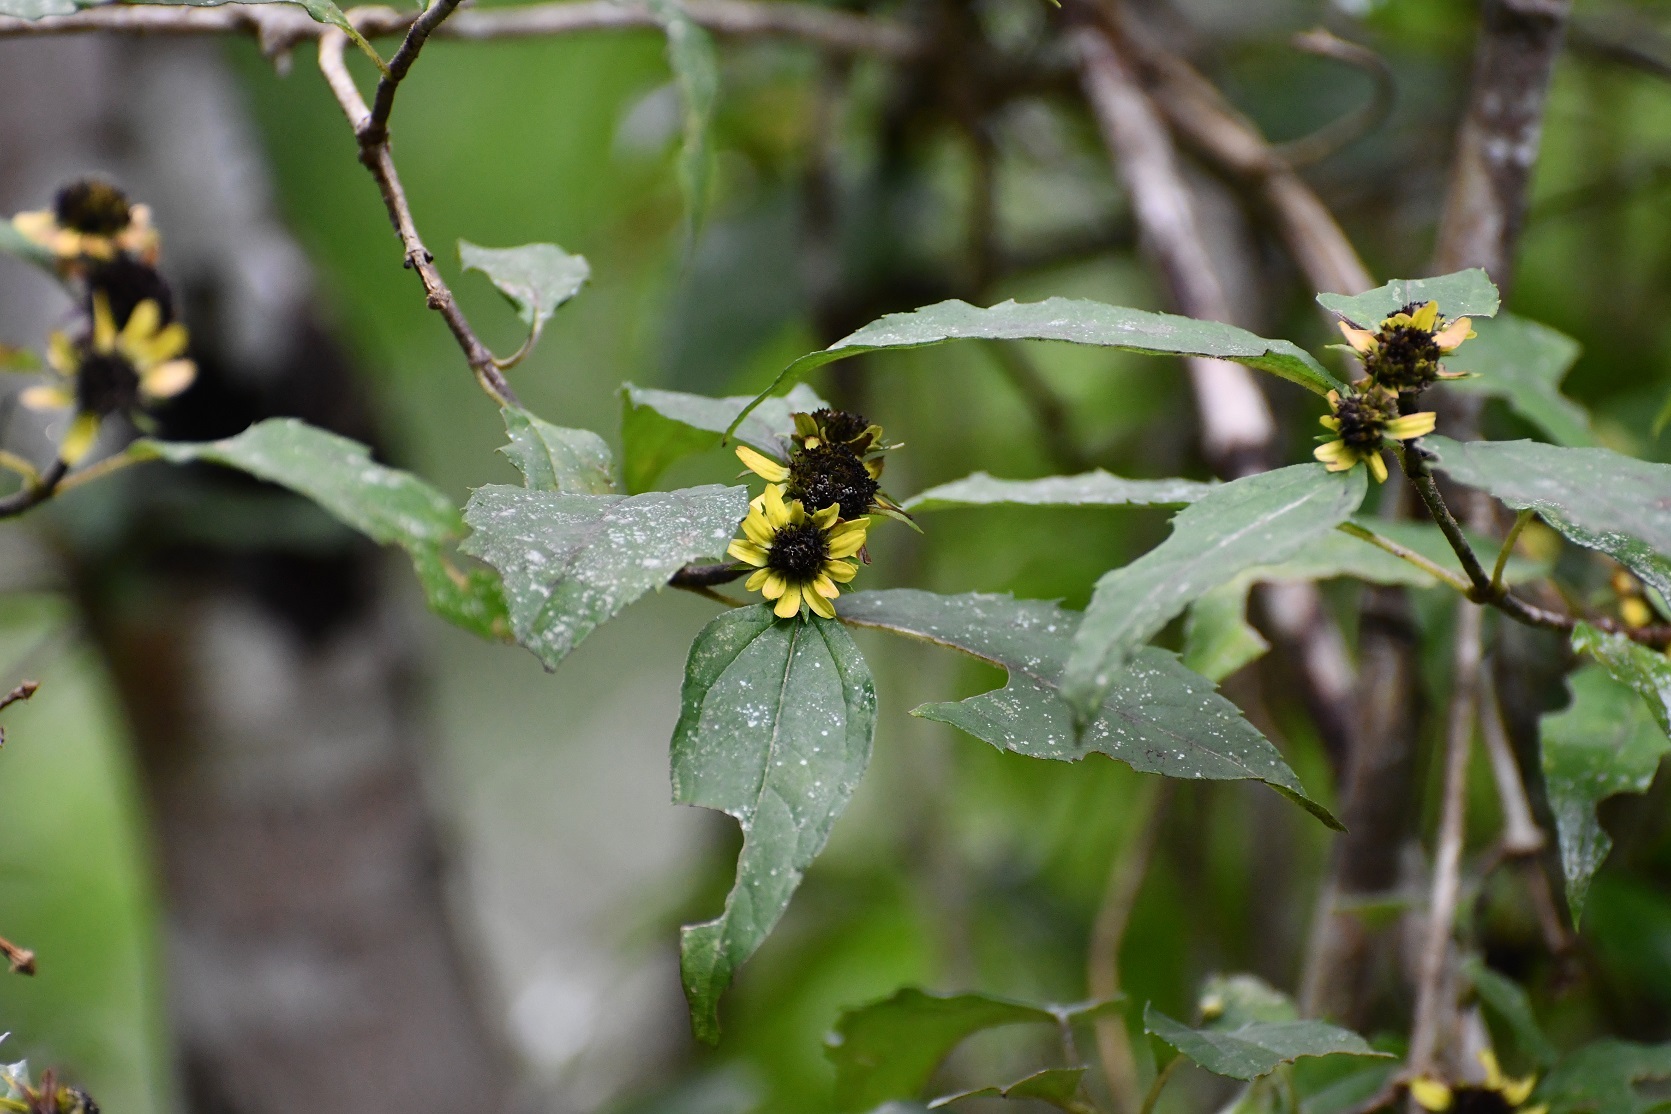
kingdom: Plantae
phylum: Tracheophyta
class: Magnoliopsida
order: Asterales
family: Asteraceae
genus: Philactis
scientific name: Philactis zinnioides
